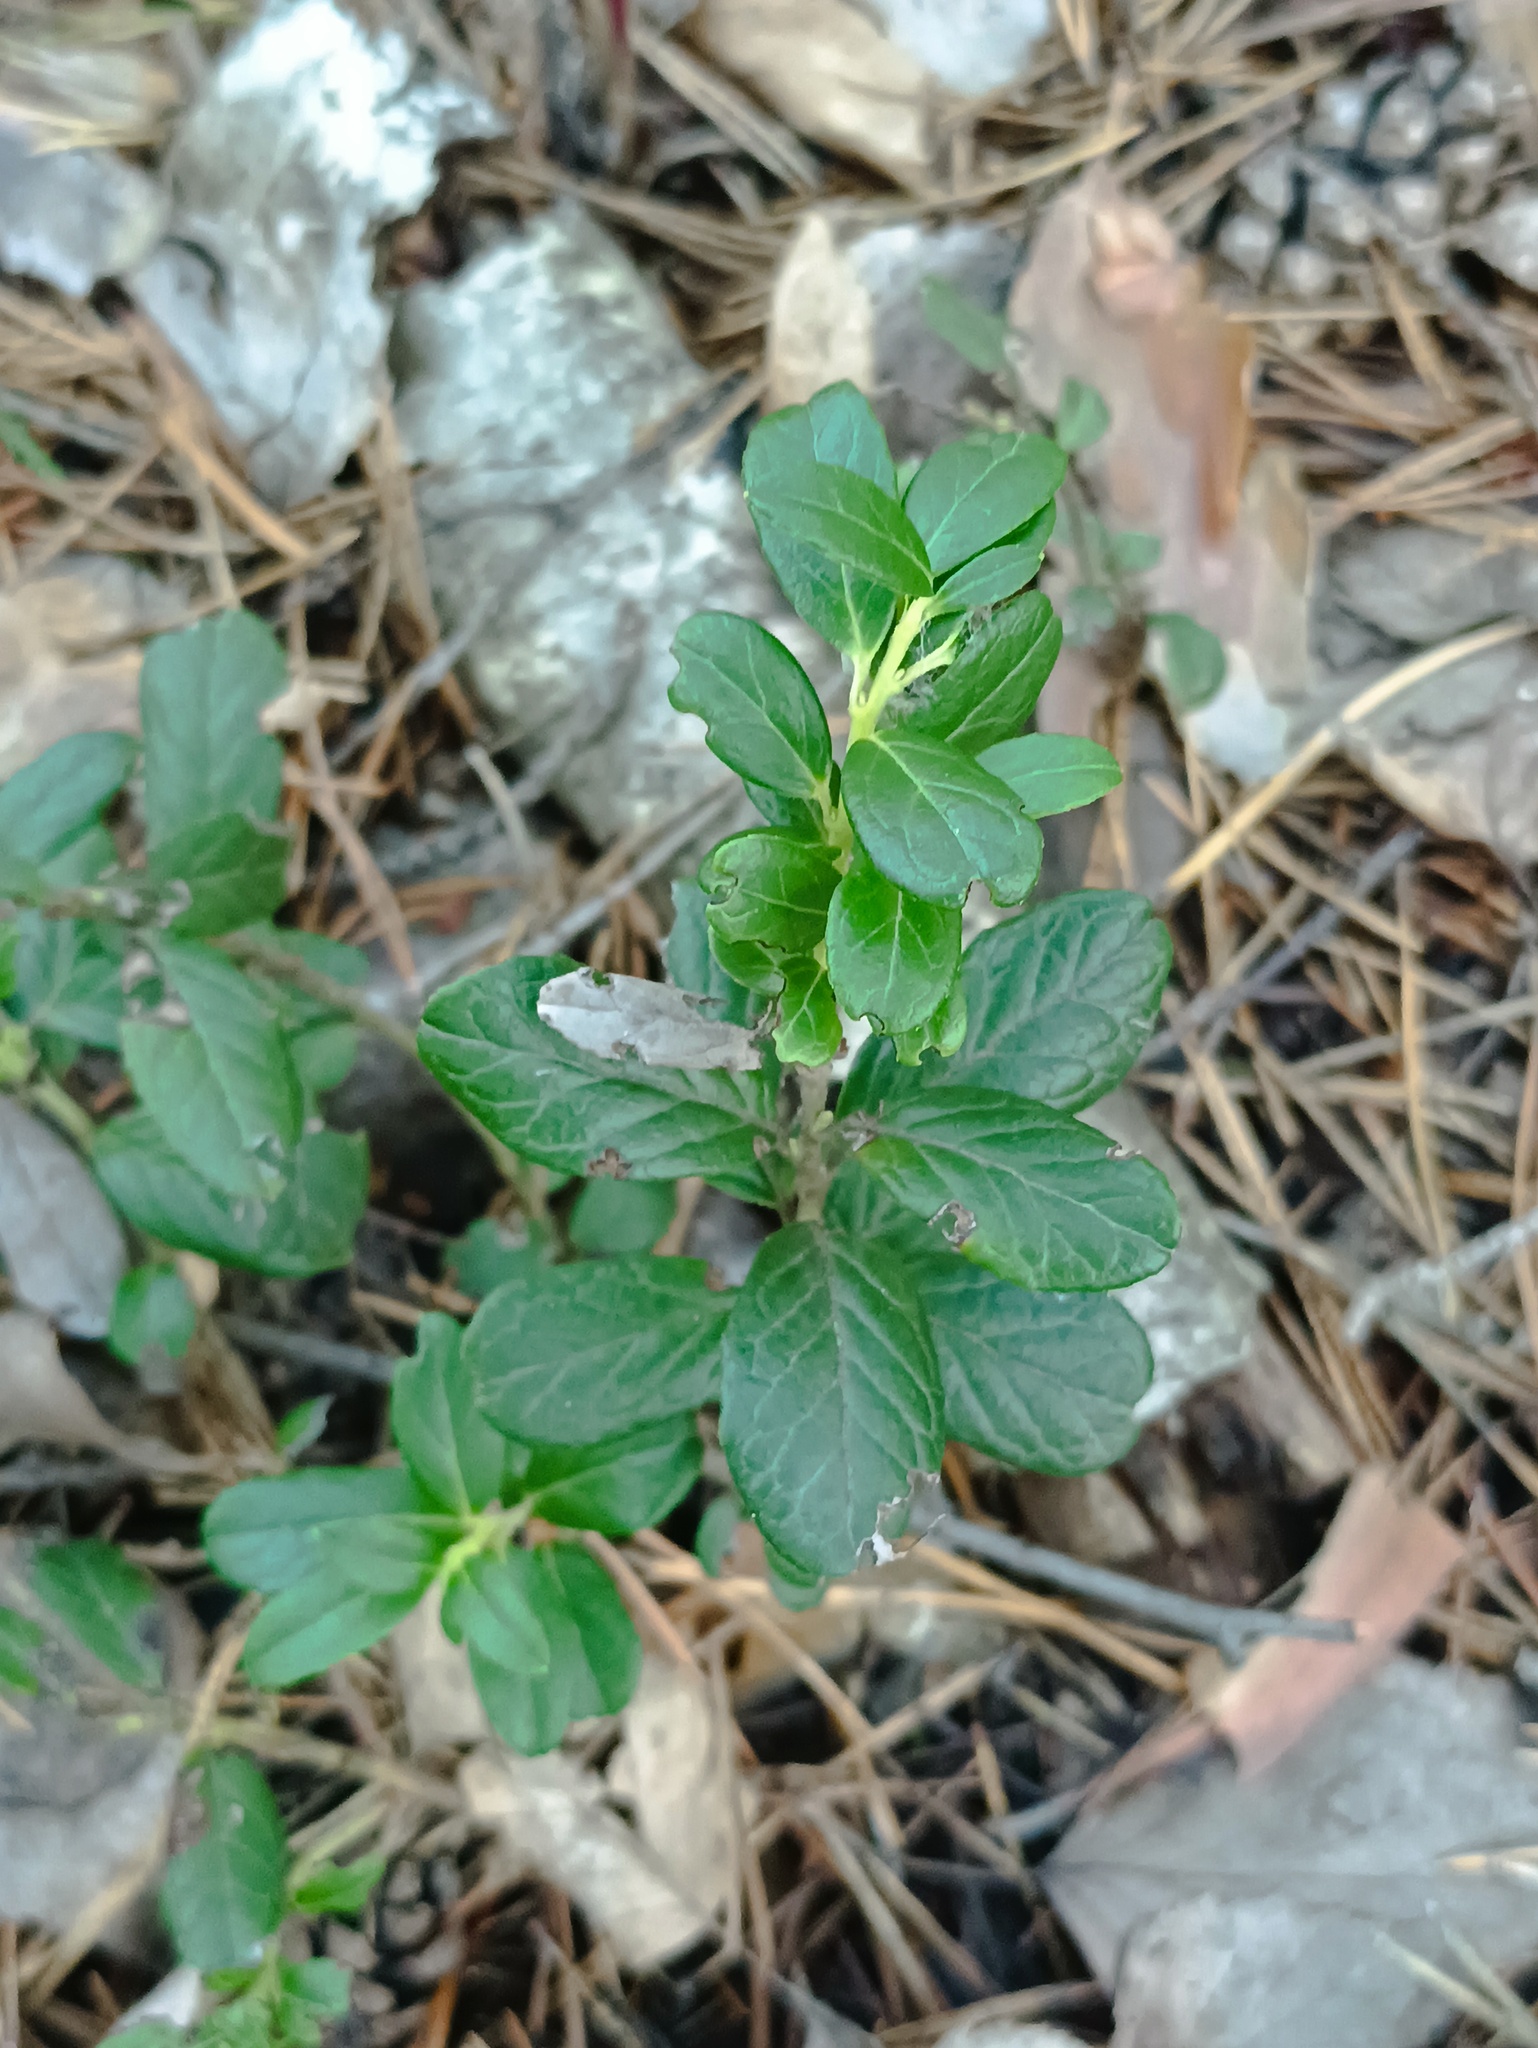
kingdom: Plantae
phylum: Tracheophyta
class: Magnoliopsida
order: Ericales
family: Ericaceae
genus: Vaccinium
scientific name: Vaccinium vitis-idaea
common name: Cowberry
